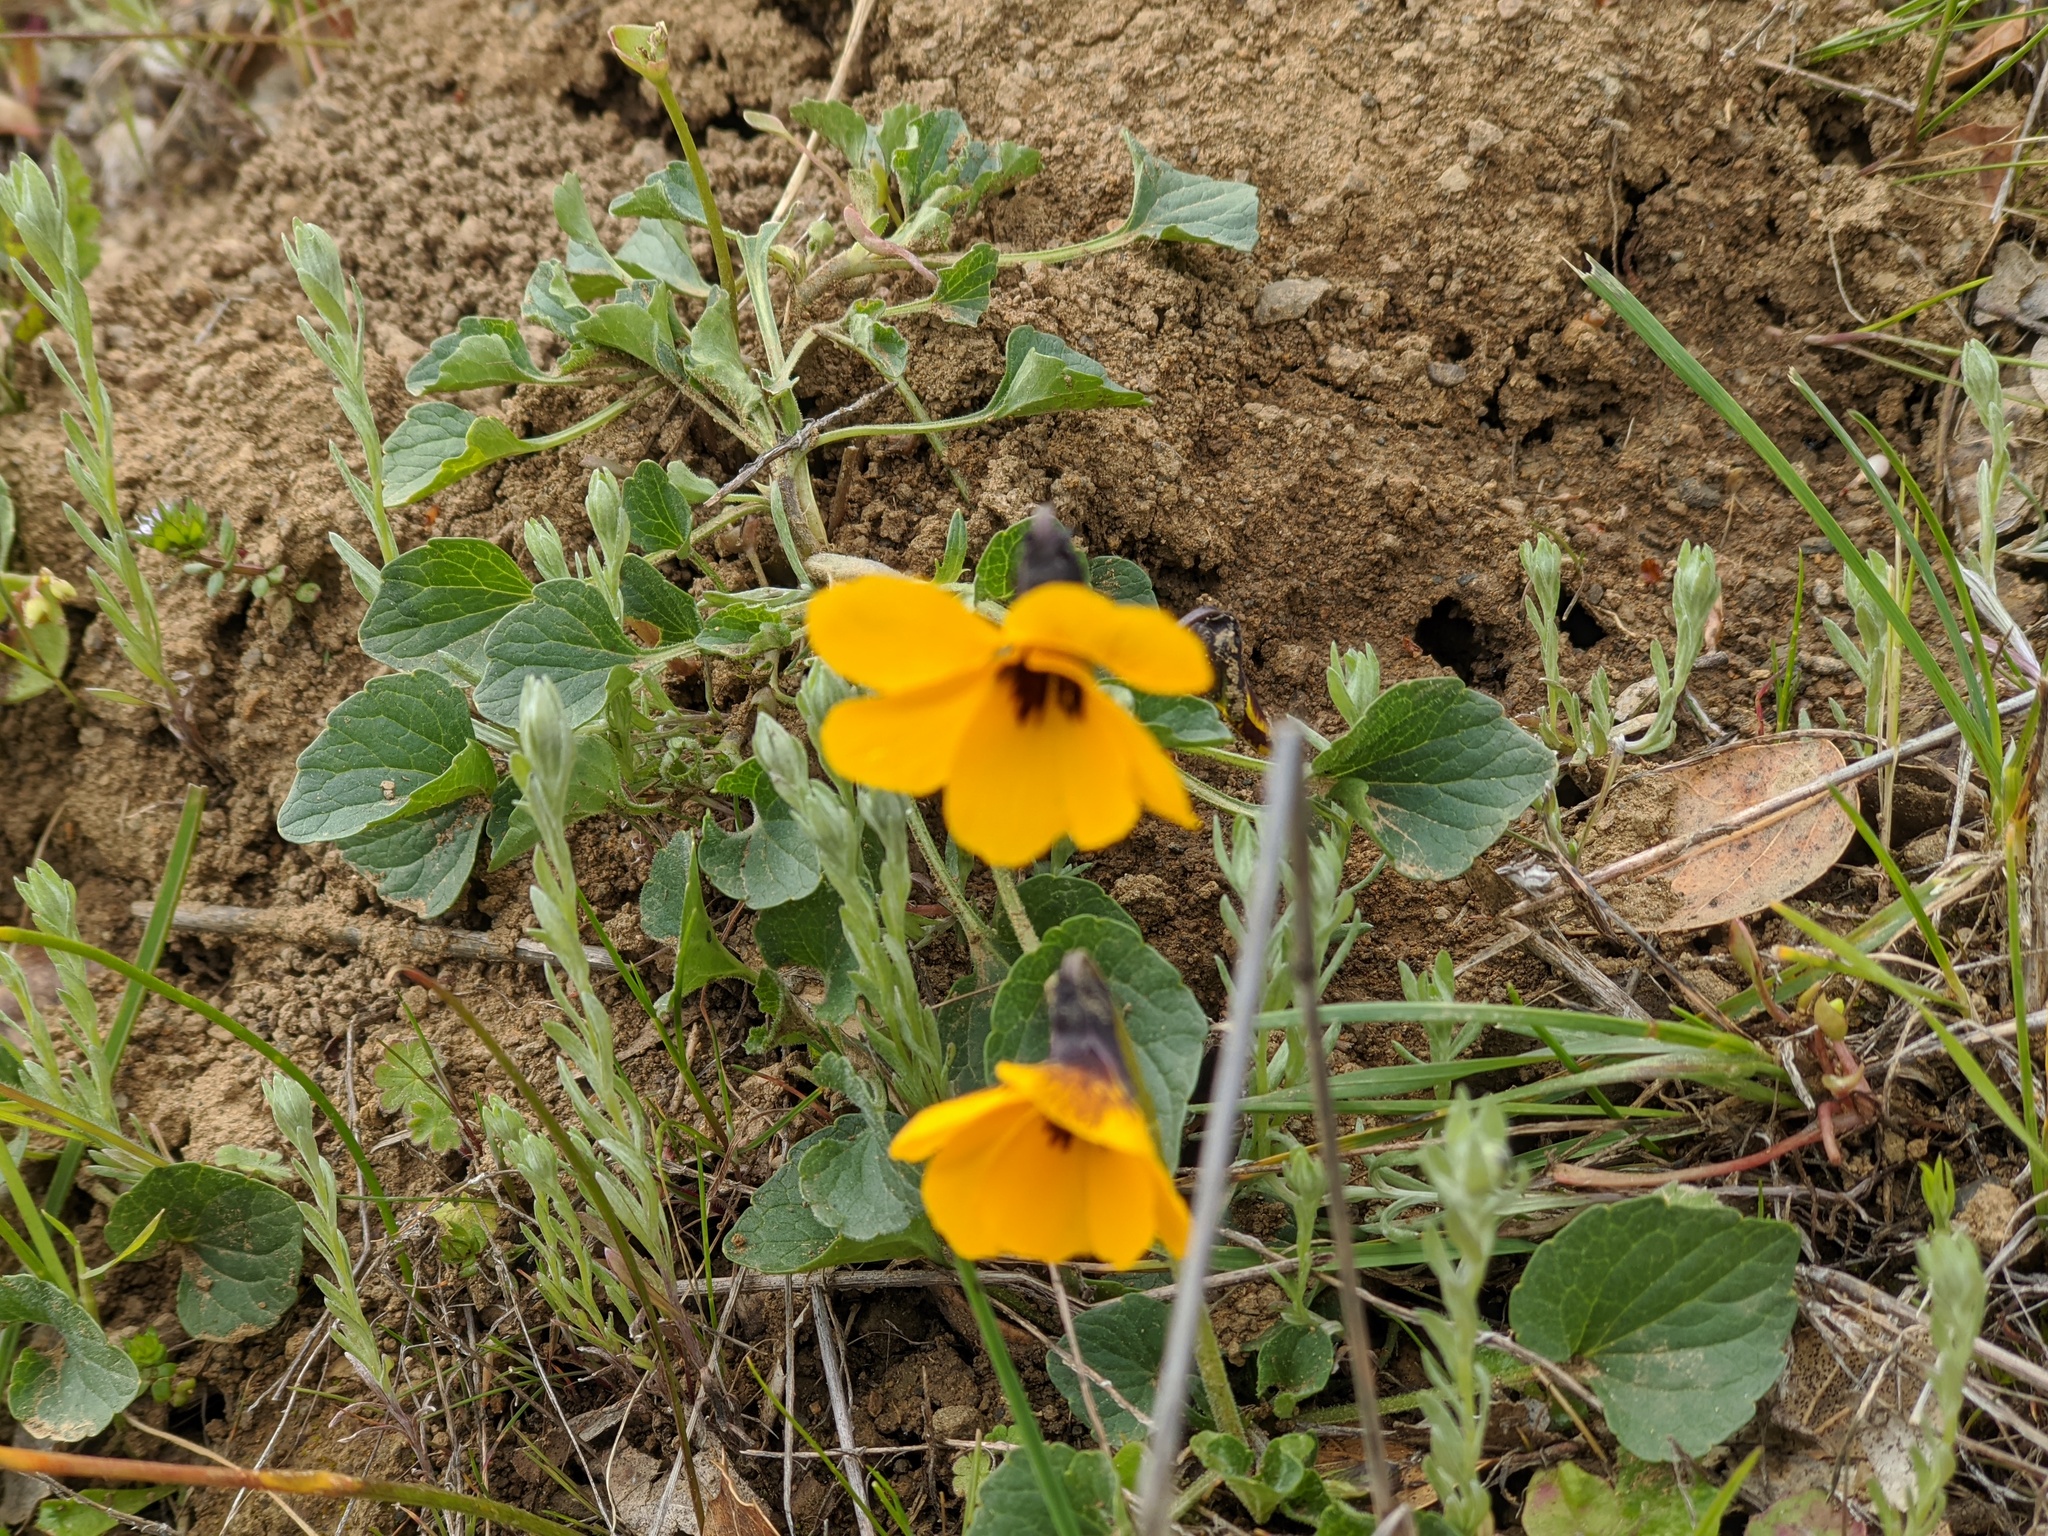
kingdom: Plantae
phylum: Tracheophyta
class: Magnoliopsida
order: Malpighiales
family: Violaceae
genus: Viola
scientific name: Viola pedunculata
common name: California golden violet
